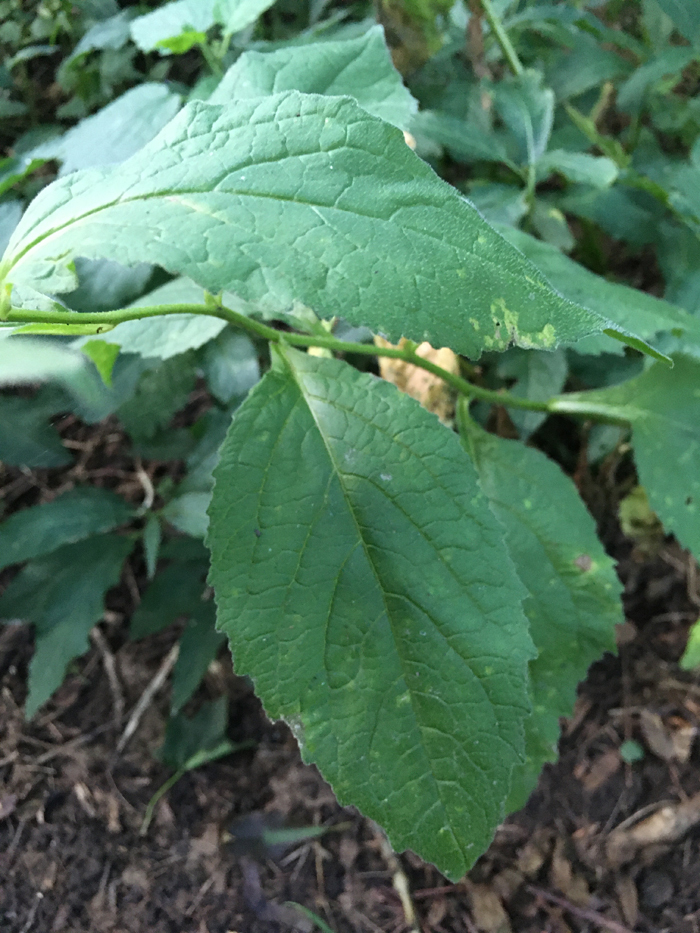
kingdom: Plantae
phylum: Tracheophyta
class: Magnoliopsida
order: Asterales
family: Campanulaceae
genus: Campanula
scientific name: Campanula latifolia
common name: Giant bellflower
